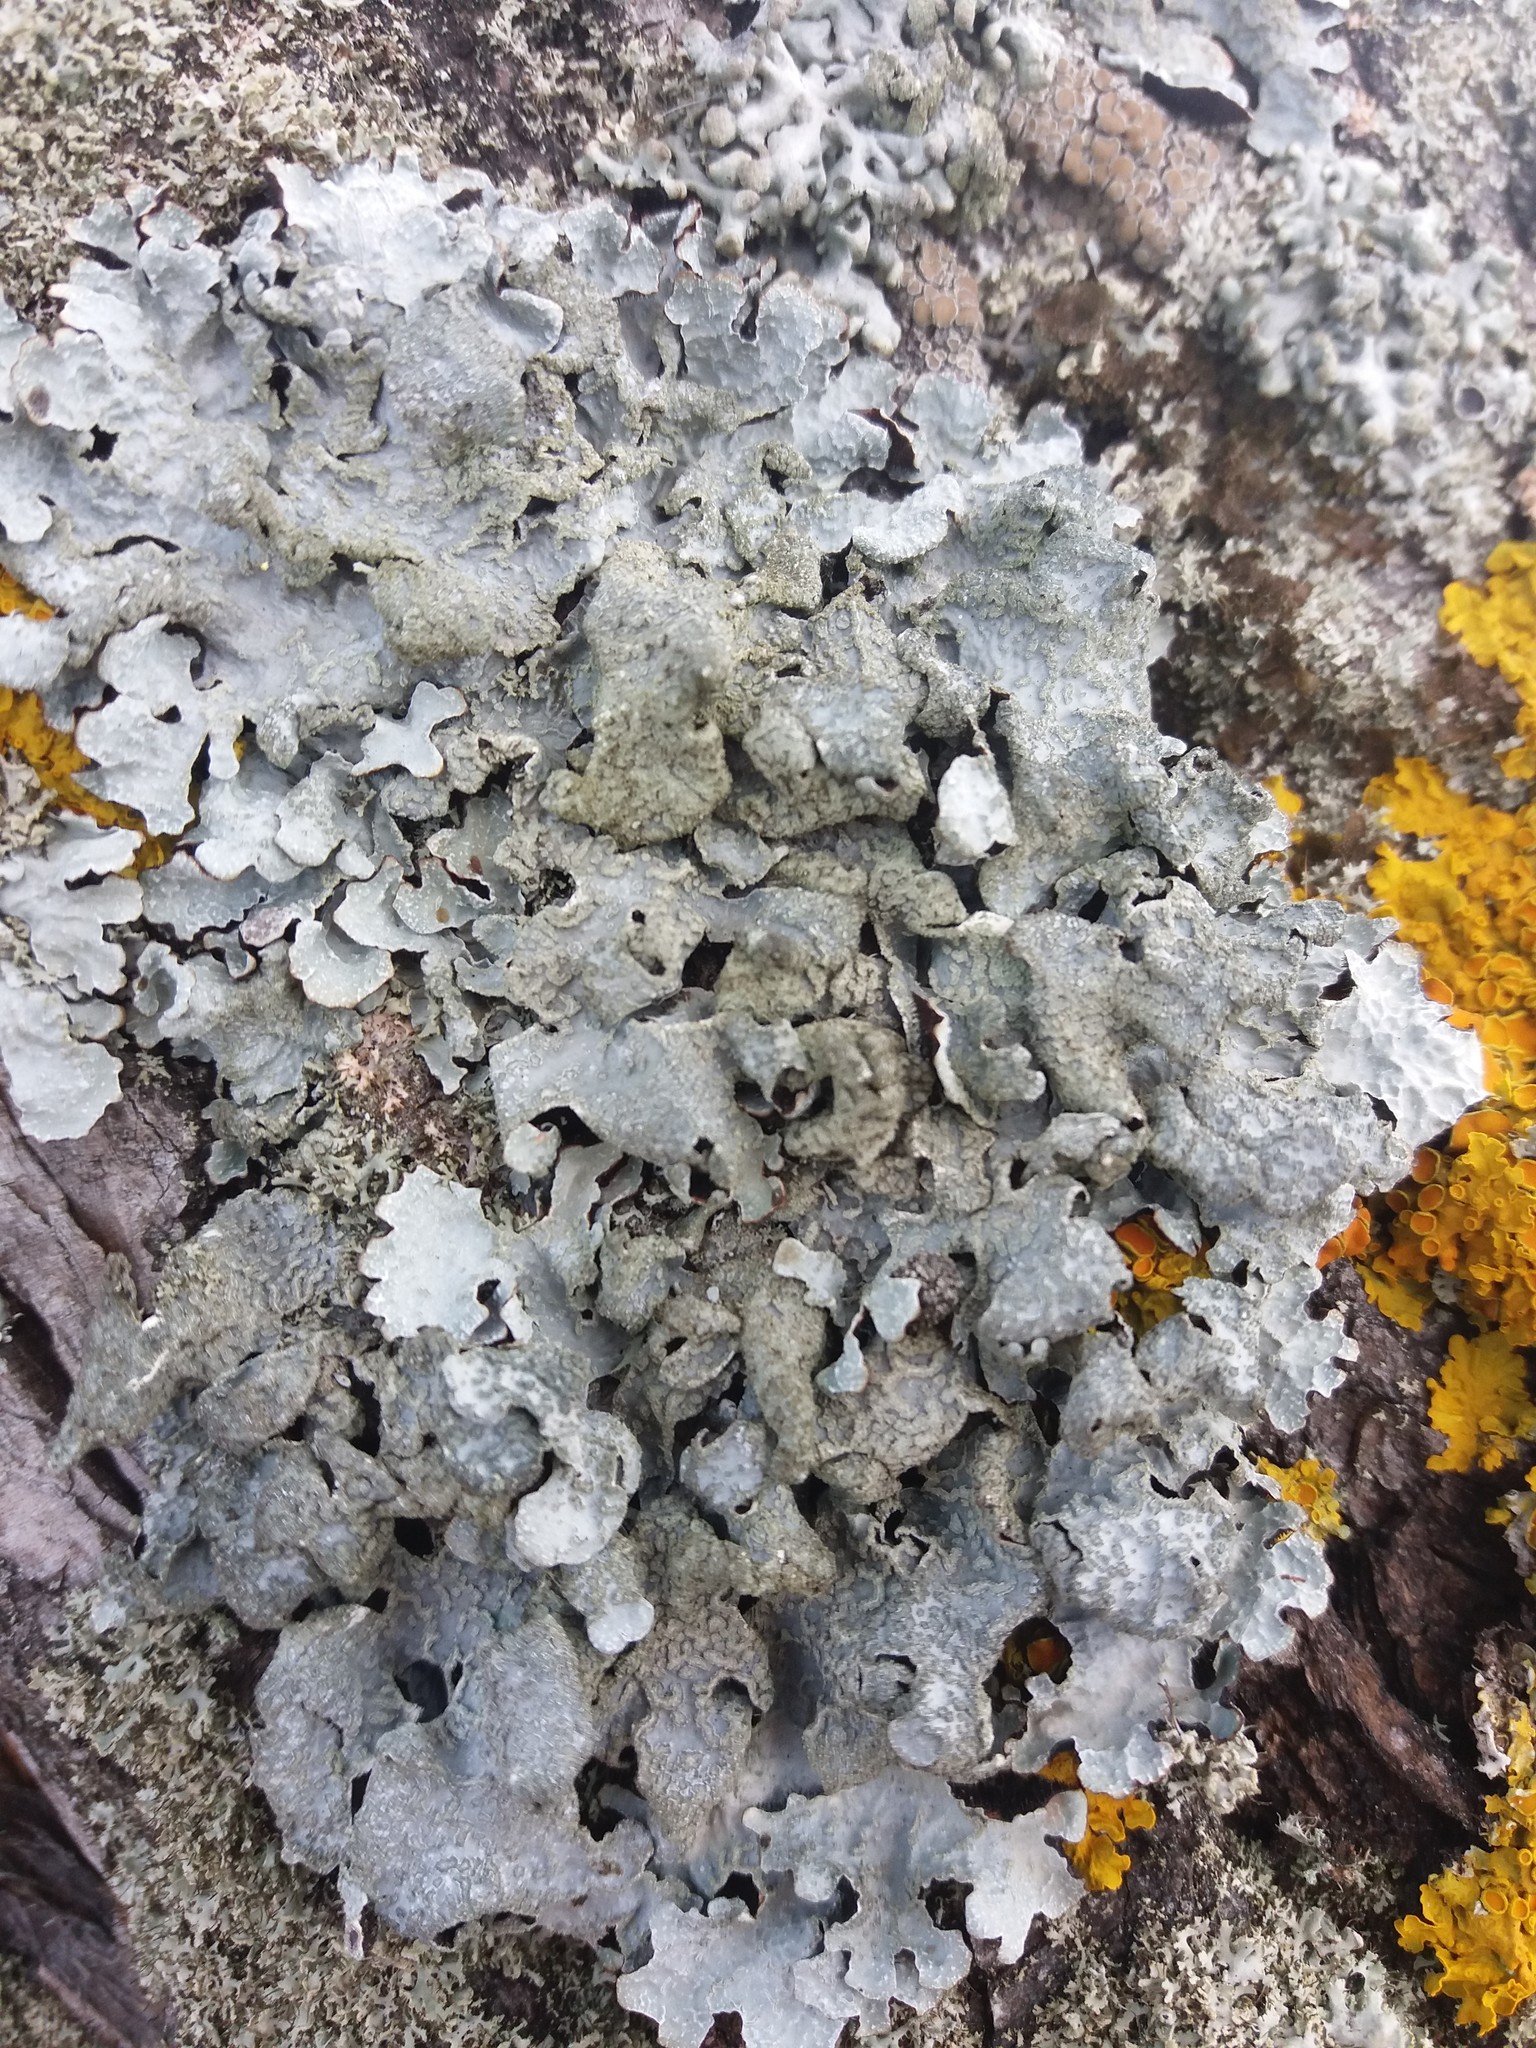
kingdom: Fungi
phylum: Ascomycota
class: Lecanoromycetes
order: Lecanorales
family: Parmeliaceae
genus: Parmelia
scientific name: Parmelia sulcata
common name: Netted shield lichen
